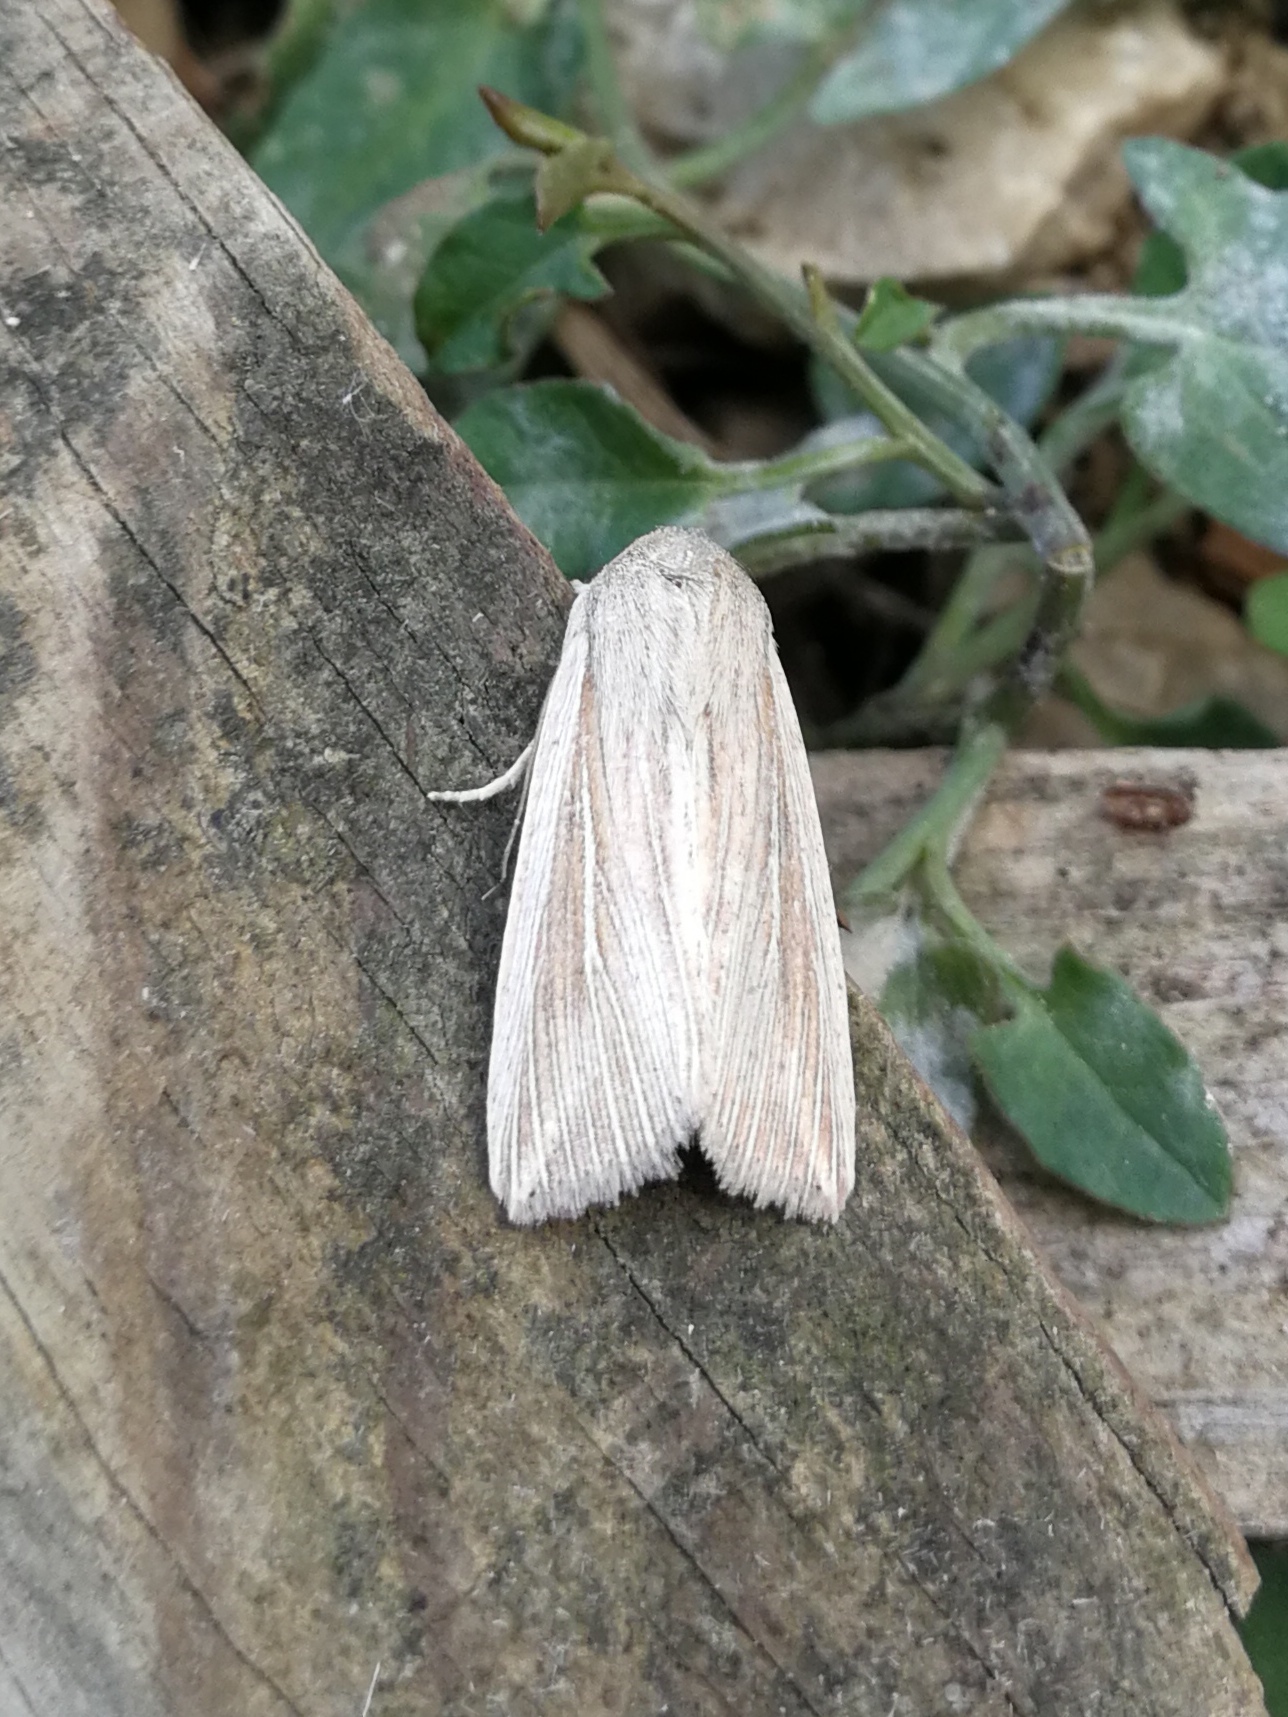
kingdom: Animalia
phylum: Arthropoda
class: Insecta
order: Lepidoptera
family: Noctuidae
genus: Mythimna
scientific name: Mythimna riparia
